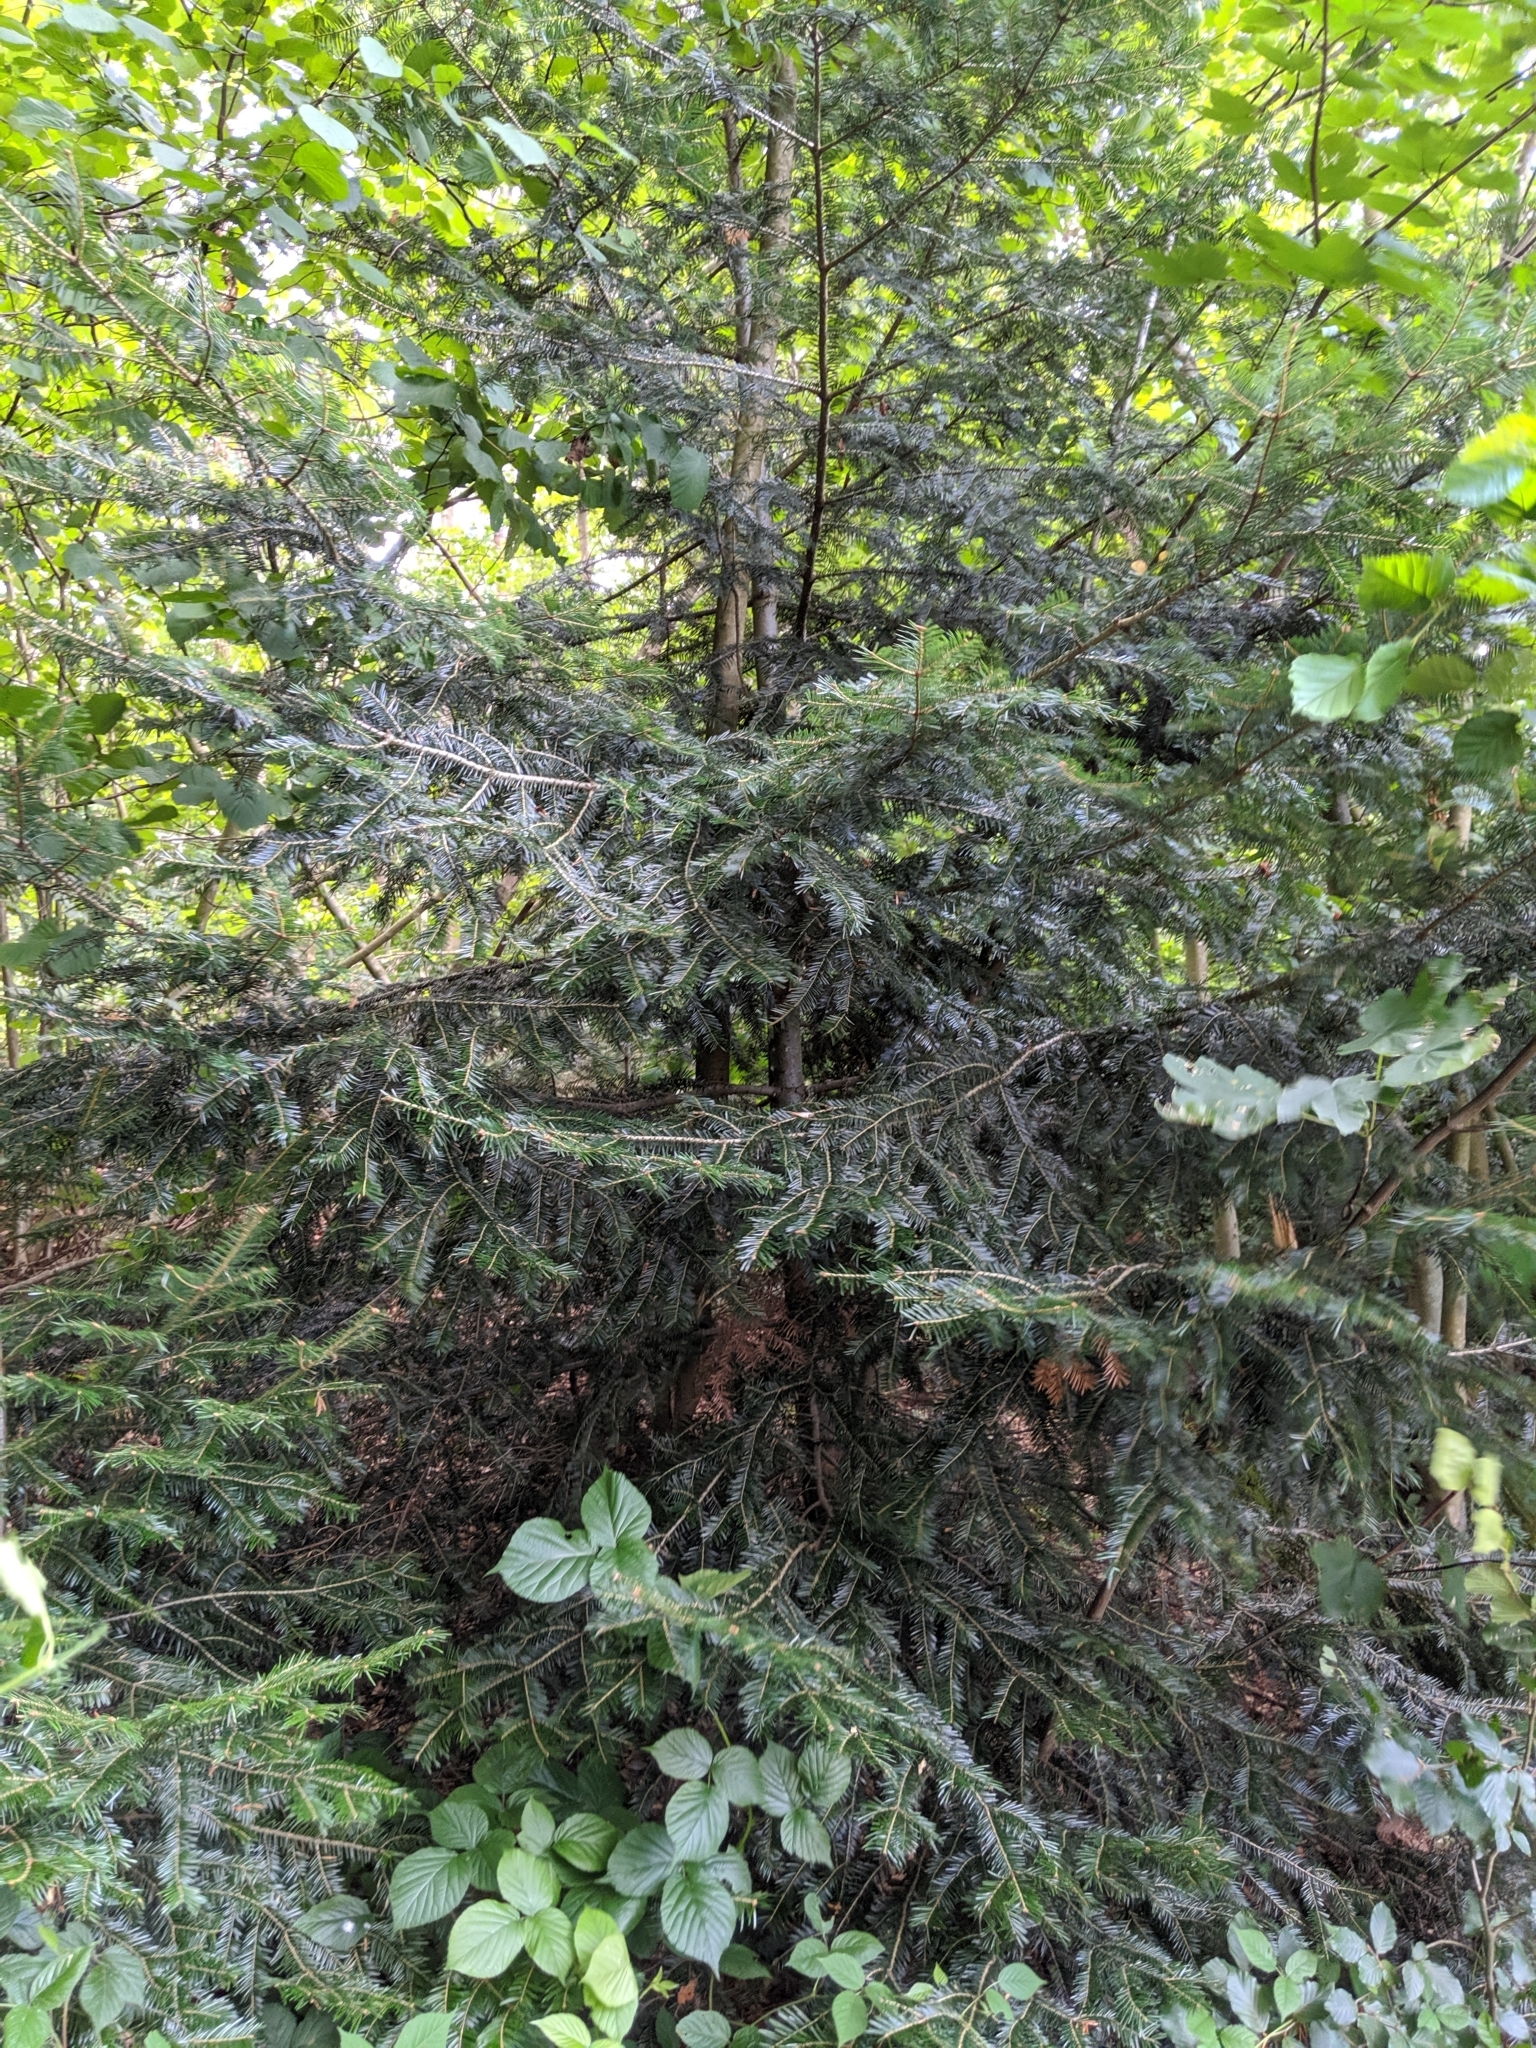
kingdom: Plantae
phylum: Tracheophyta
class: Pinopsida
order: Pinales
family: Pinaceae
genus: Abies
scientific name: Abies alba
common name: Silver fir
